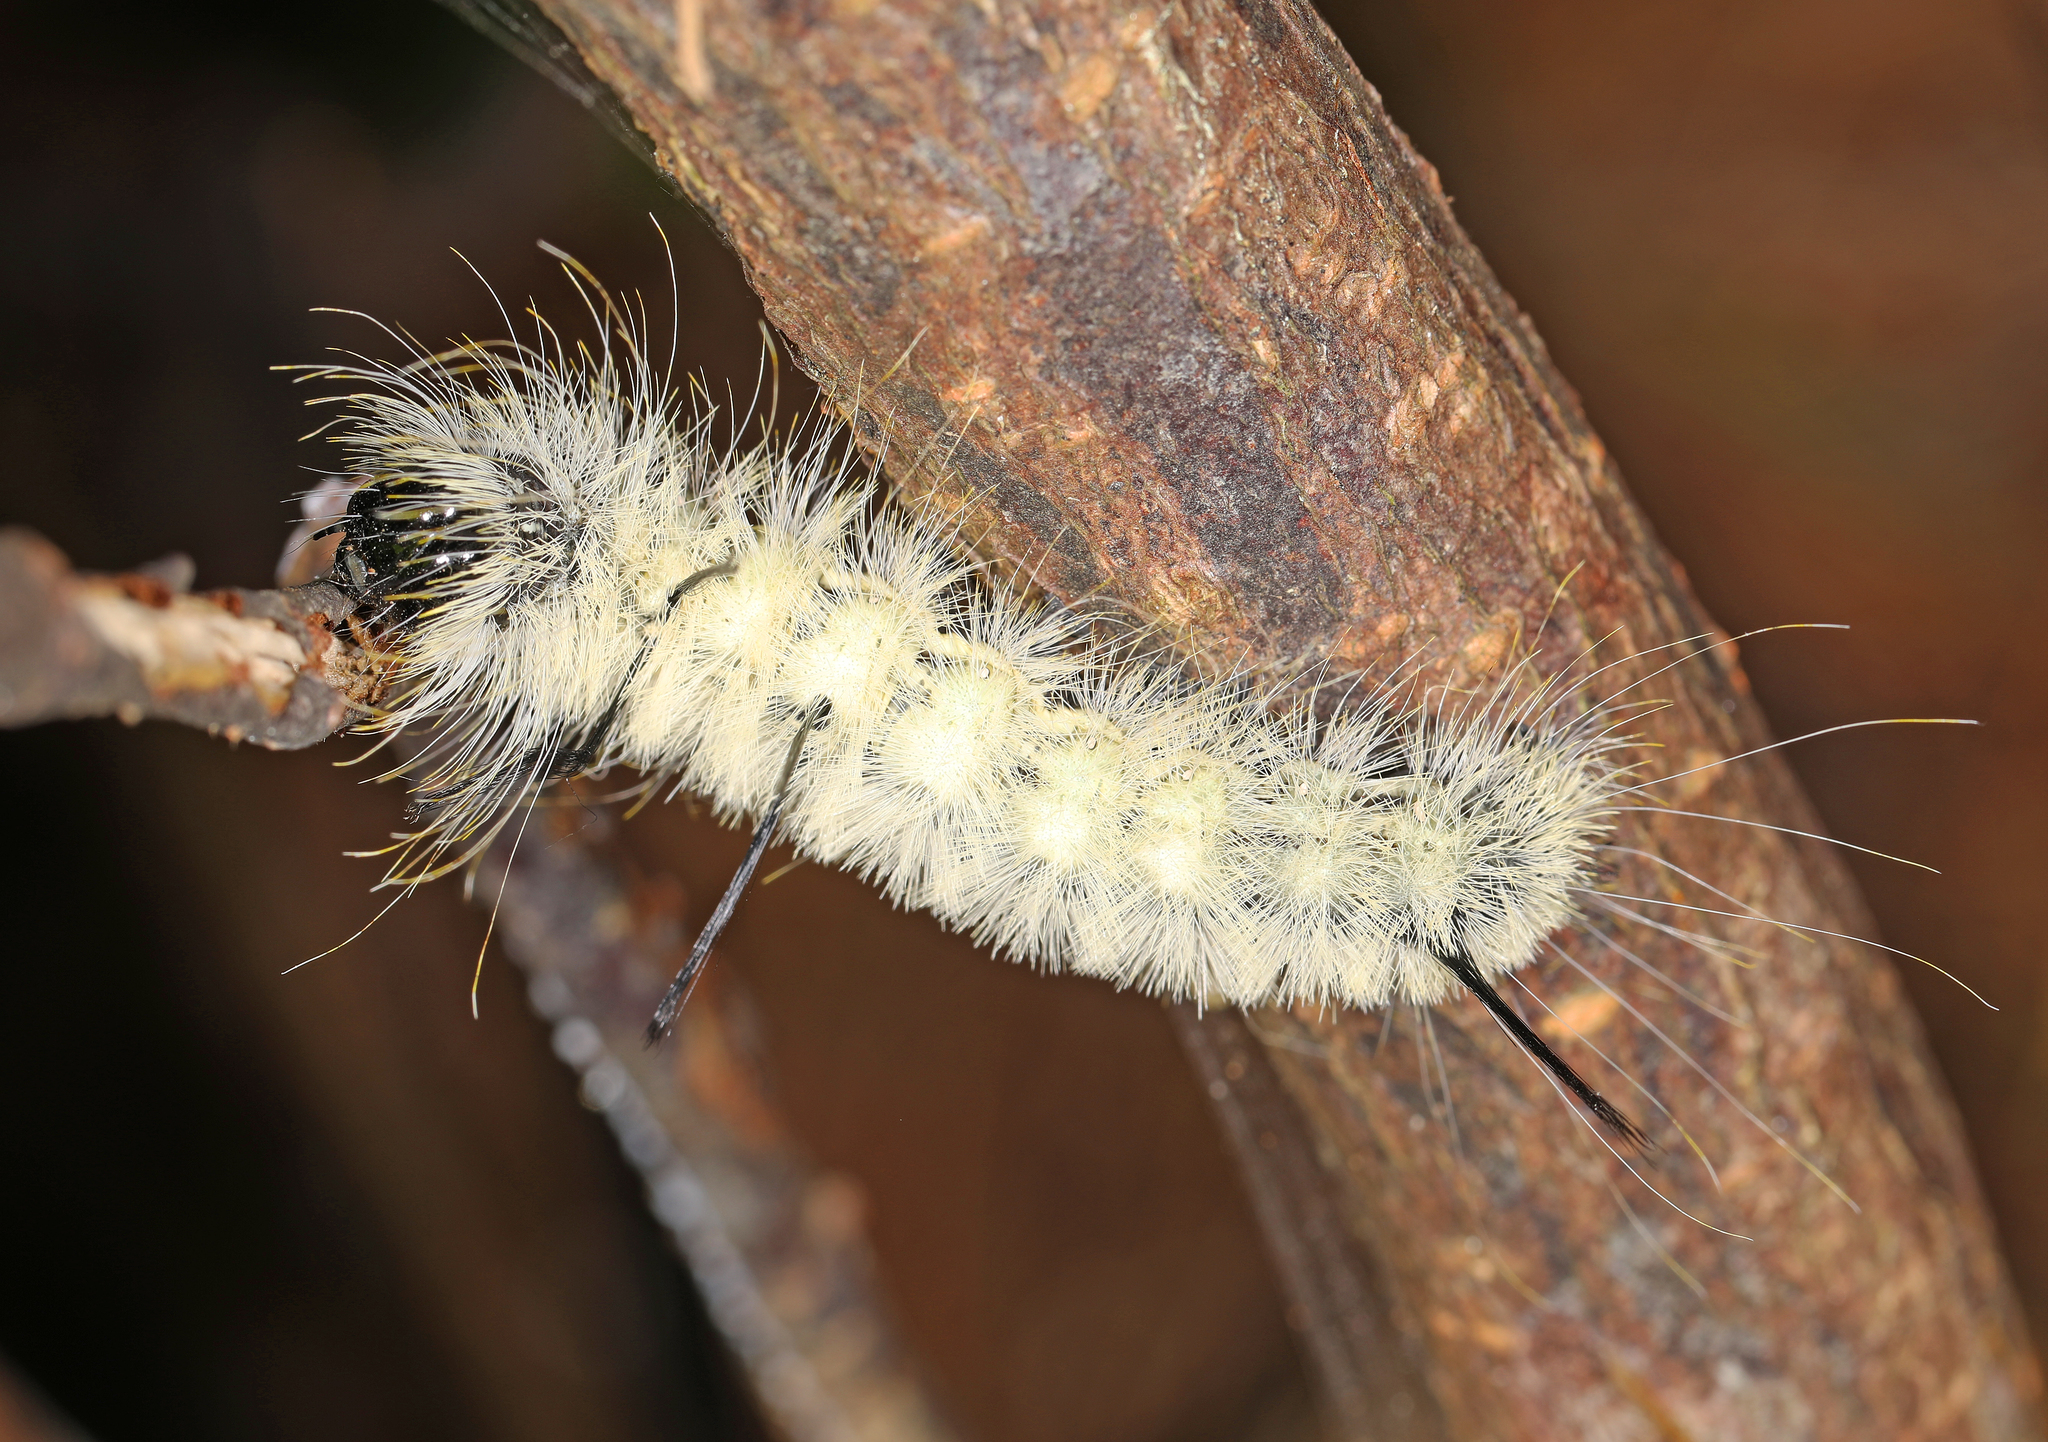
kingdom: Animalia
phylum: Arthropoda
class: Insecta
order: Lepidoptera
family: Noctuidae
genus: Acronicta
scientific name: Acronicta americana
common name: American dagger
